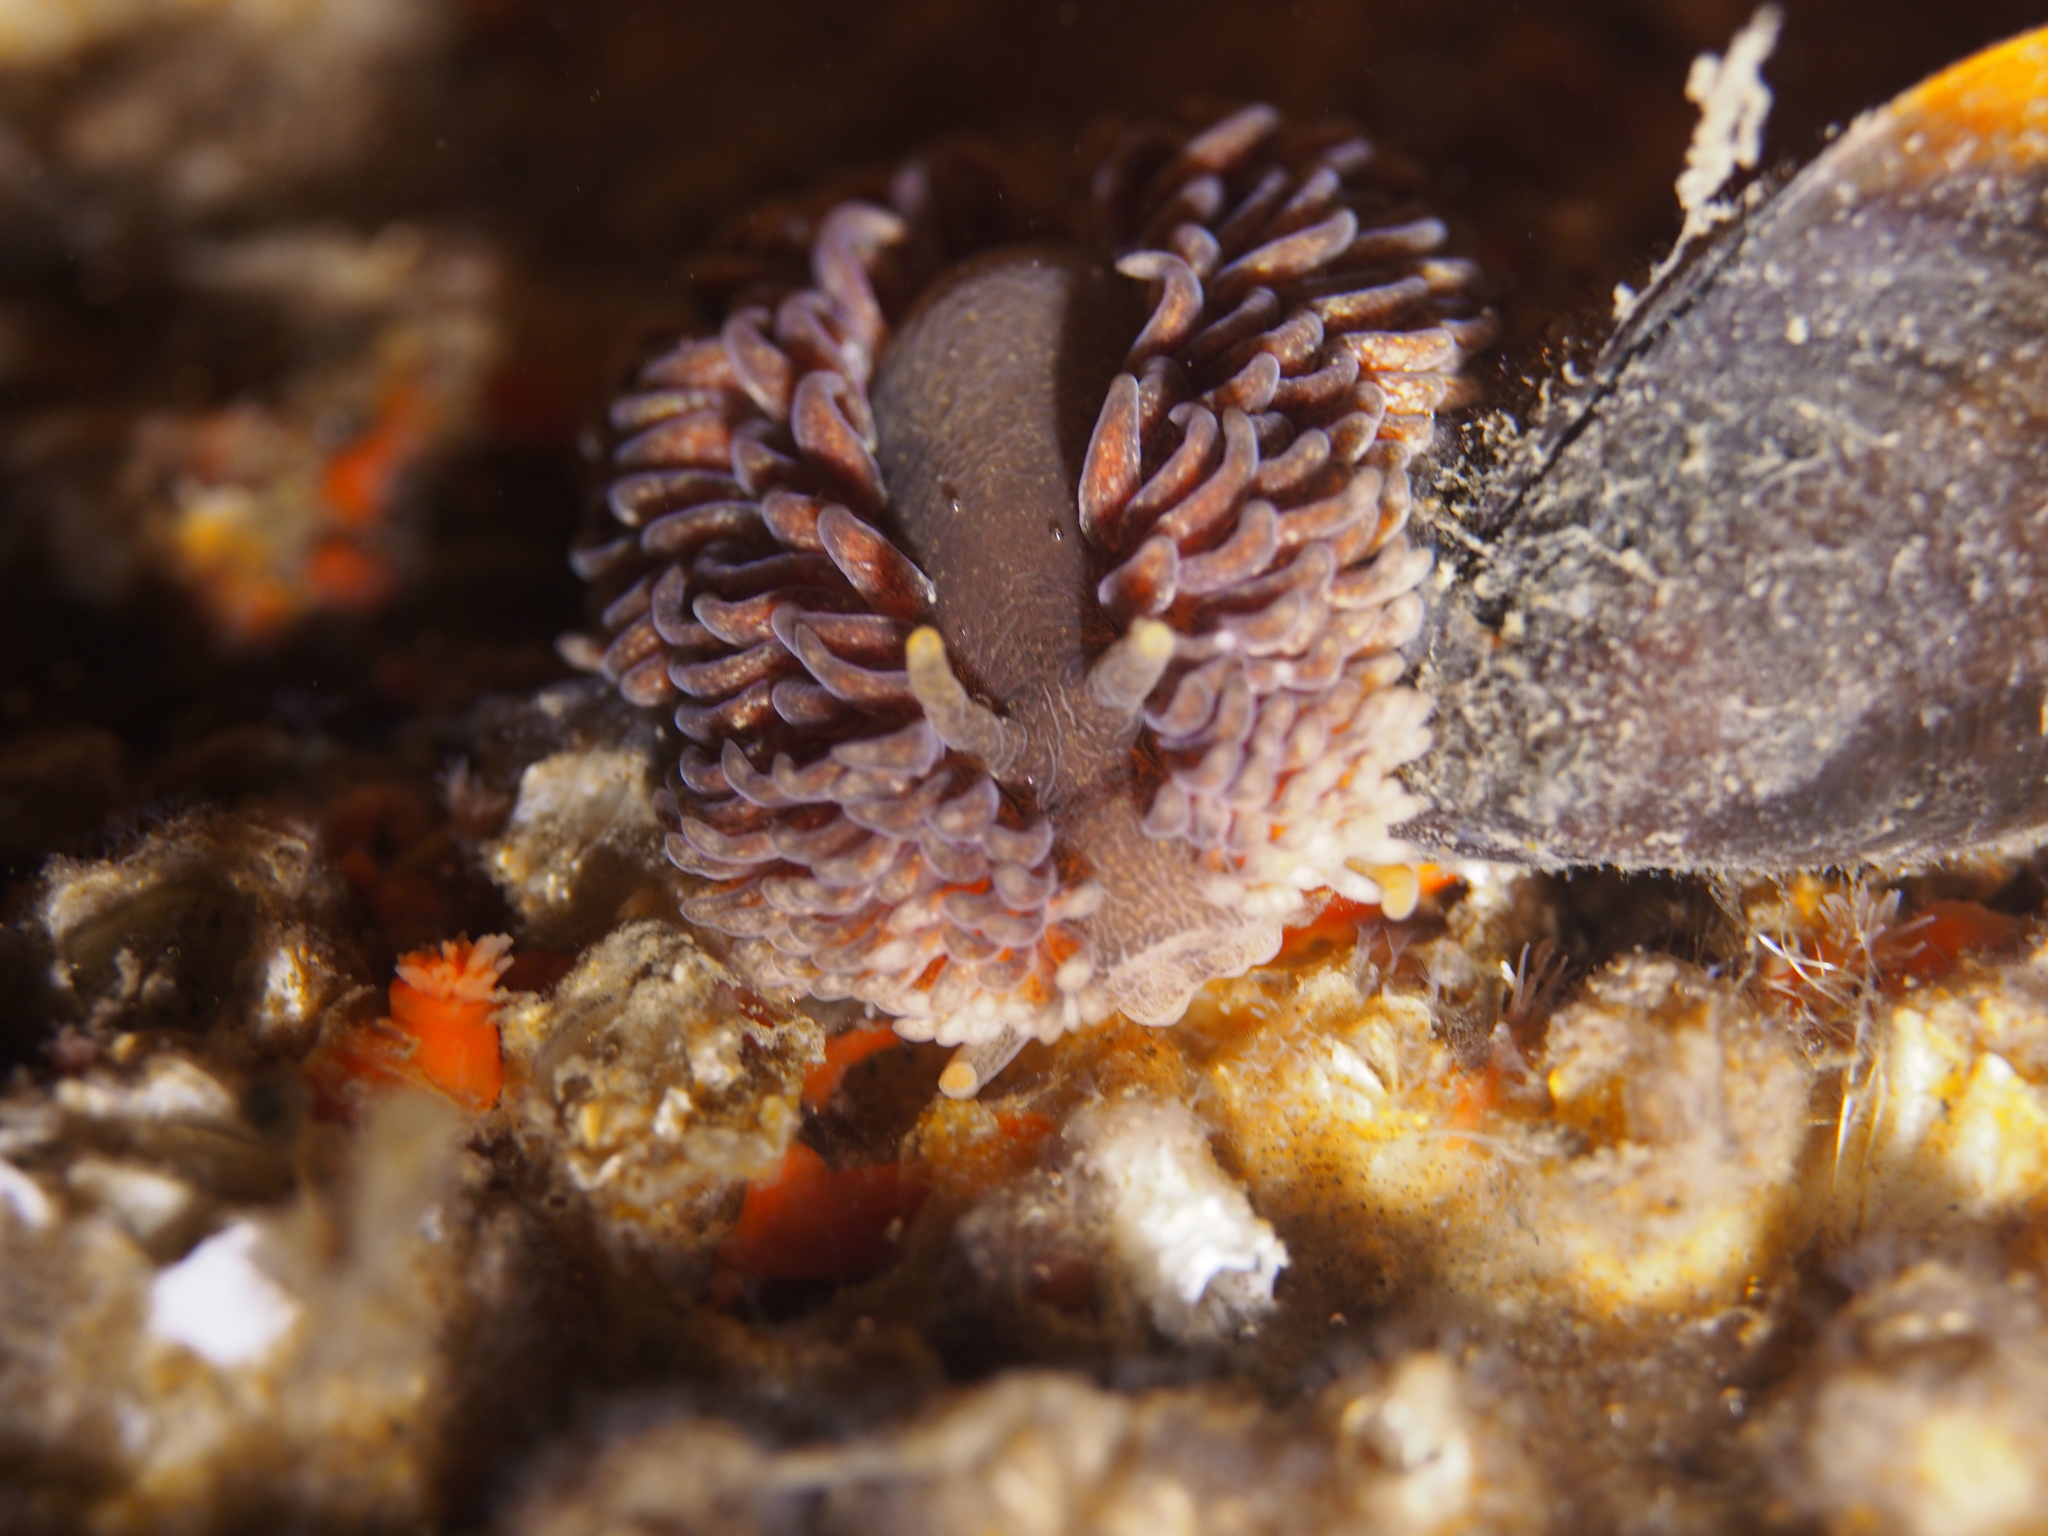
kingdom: Animalia
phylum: Mollusca
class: Gastropoda
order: Nudibranchia
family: Aeolidiidae
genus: Aeolidia
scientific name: Aeolidia papillosa
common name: Common grey sea slug
